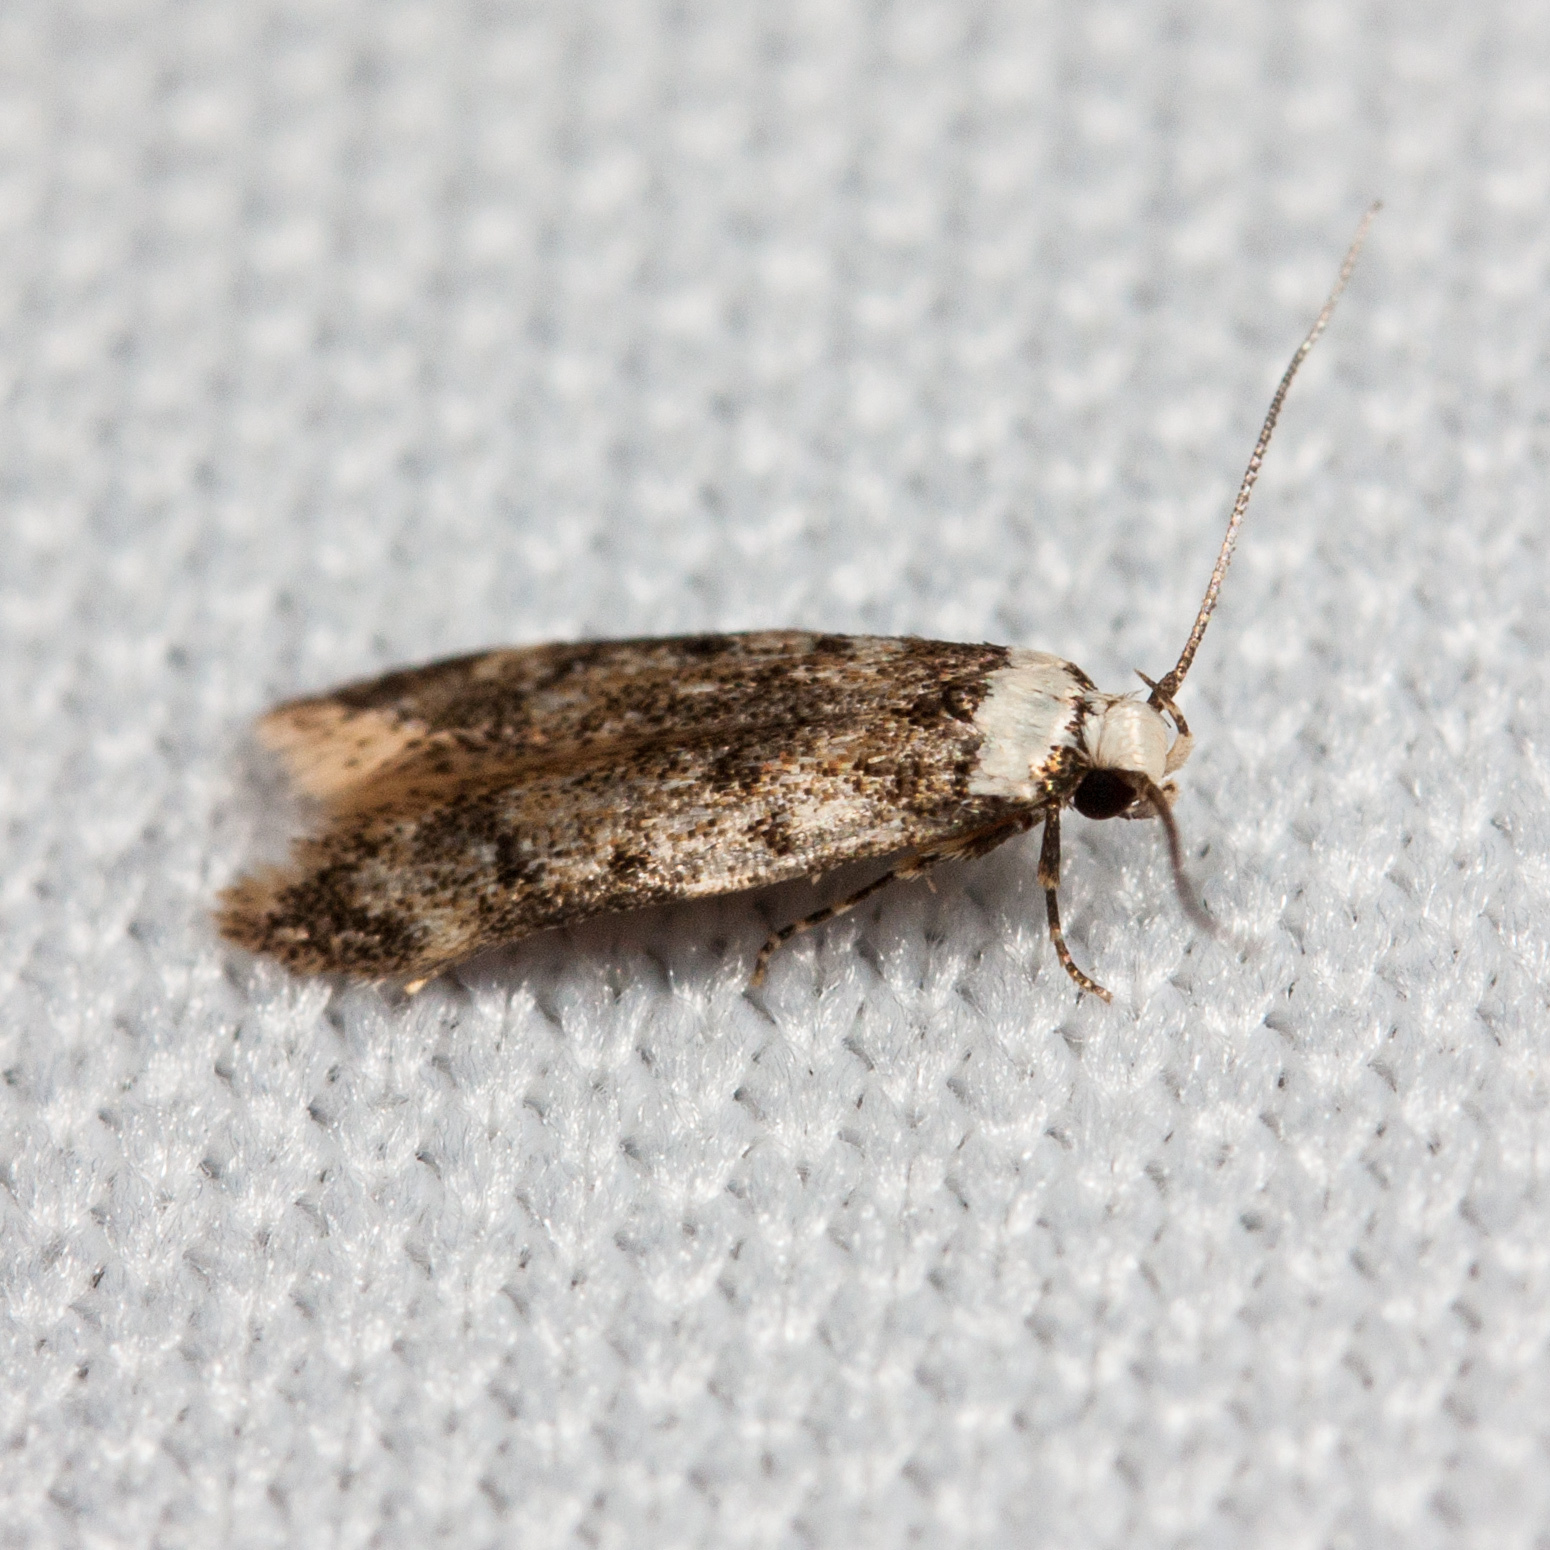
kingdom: Animalia
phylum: Arthropoda
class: Insecta
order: Lepidoptera
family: Oecophoridae
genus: Endrosis
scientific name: Endrosis sarcitrella
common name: White-shouldered house moth
